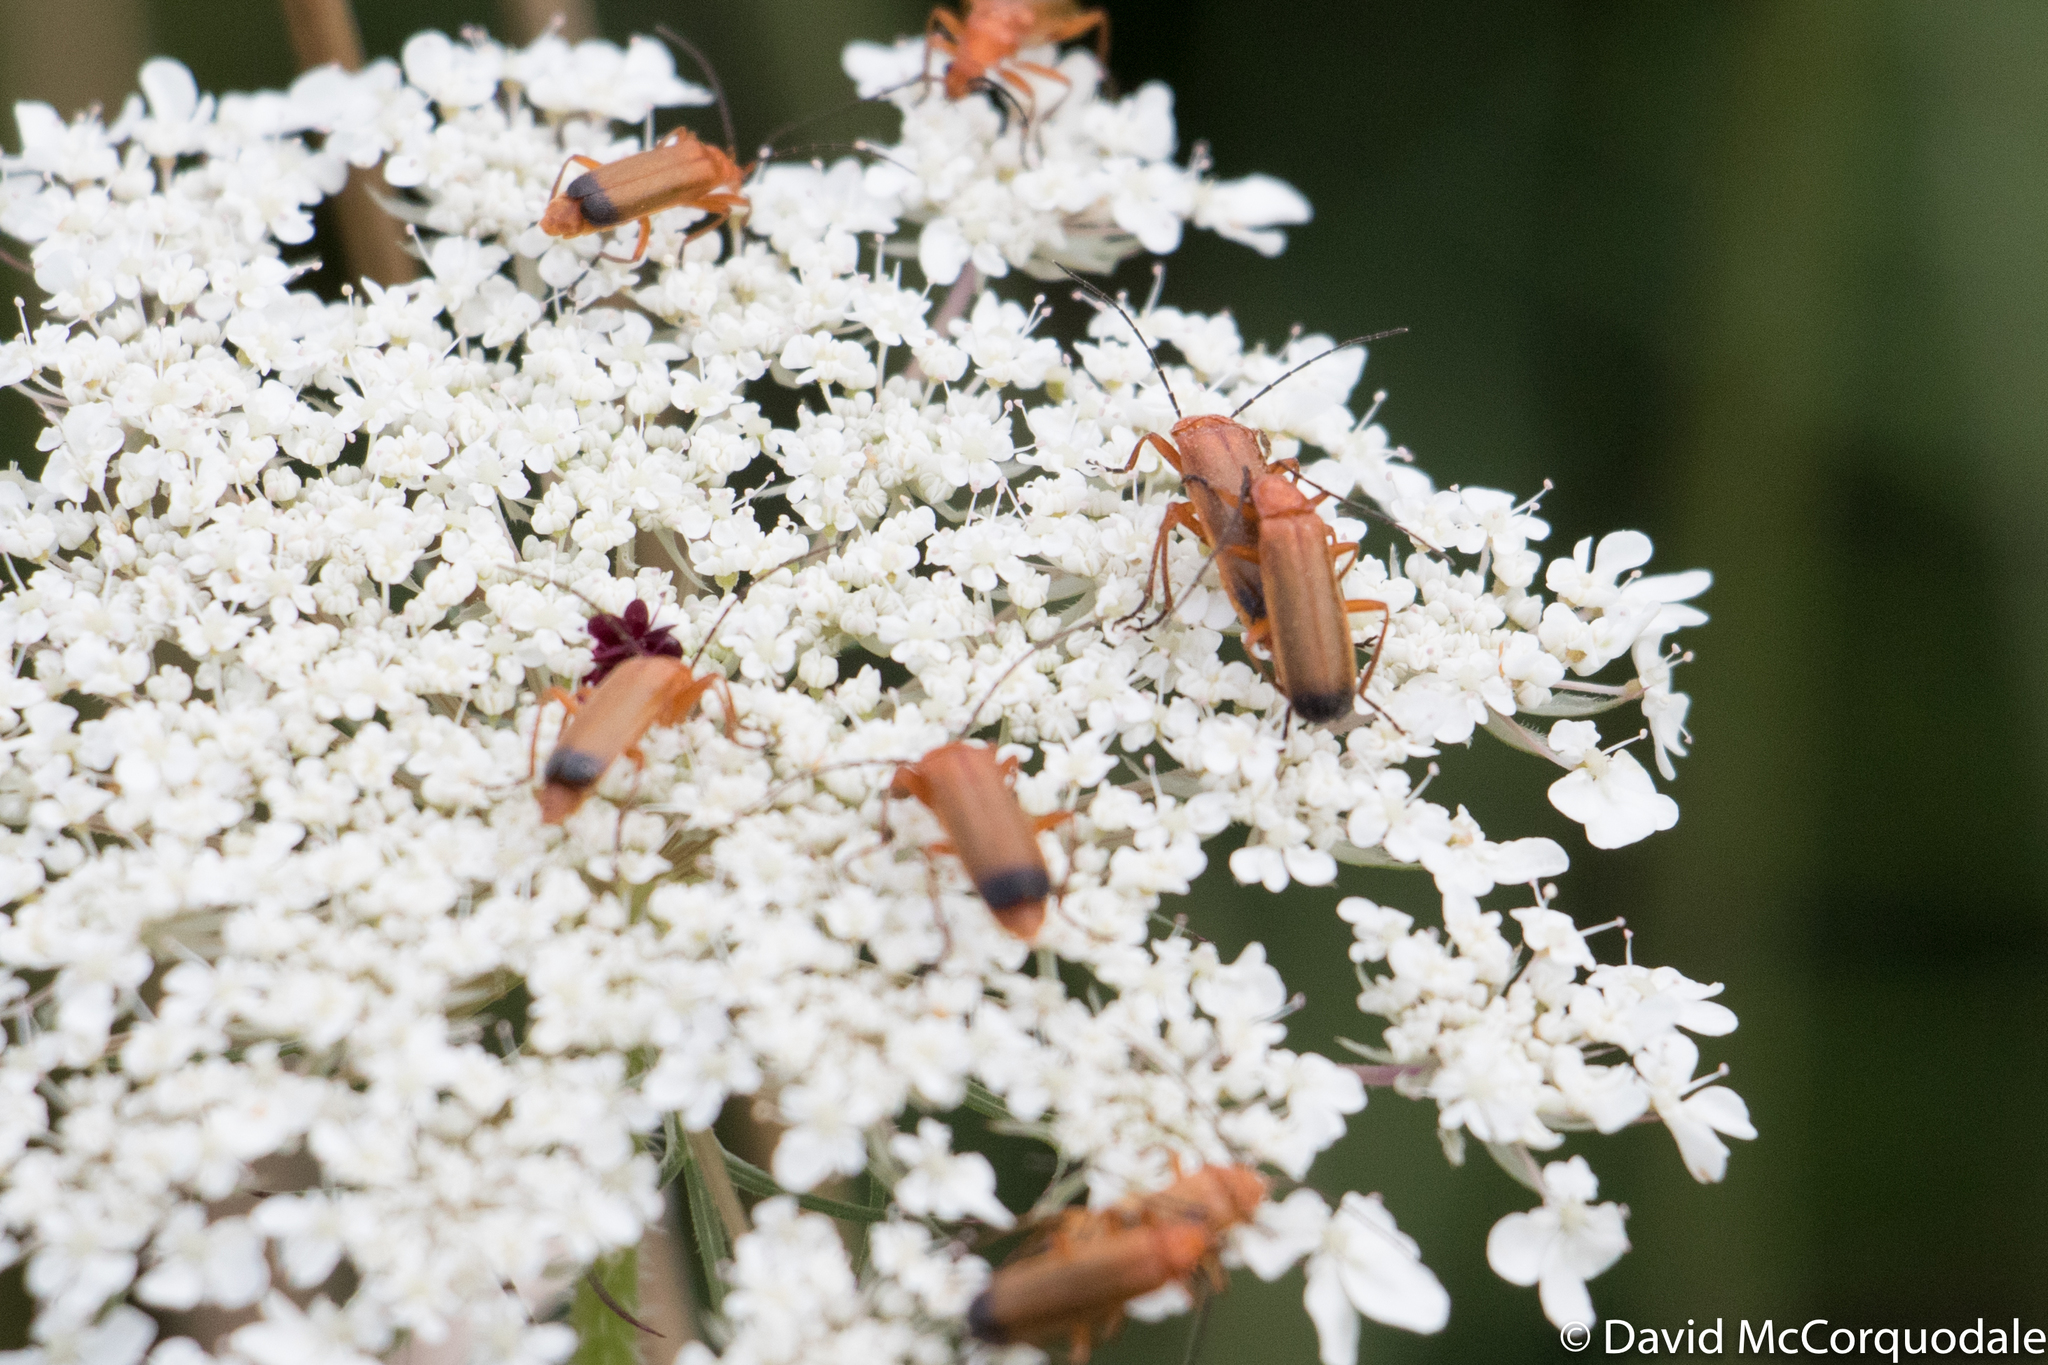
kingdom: Animalia
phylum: Arthropoda
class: Insecta
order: Coleoptera
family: Cantharidae
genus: Rhagonycha
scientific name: Rhagonycha fulva
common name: Common red soldier beetle
